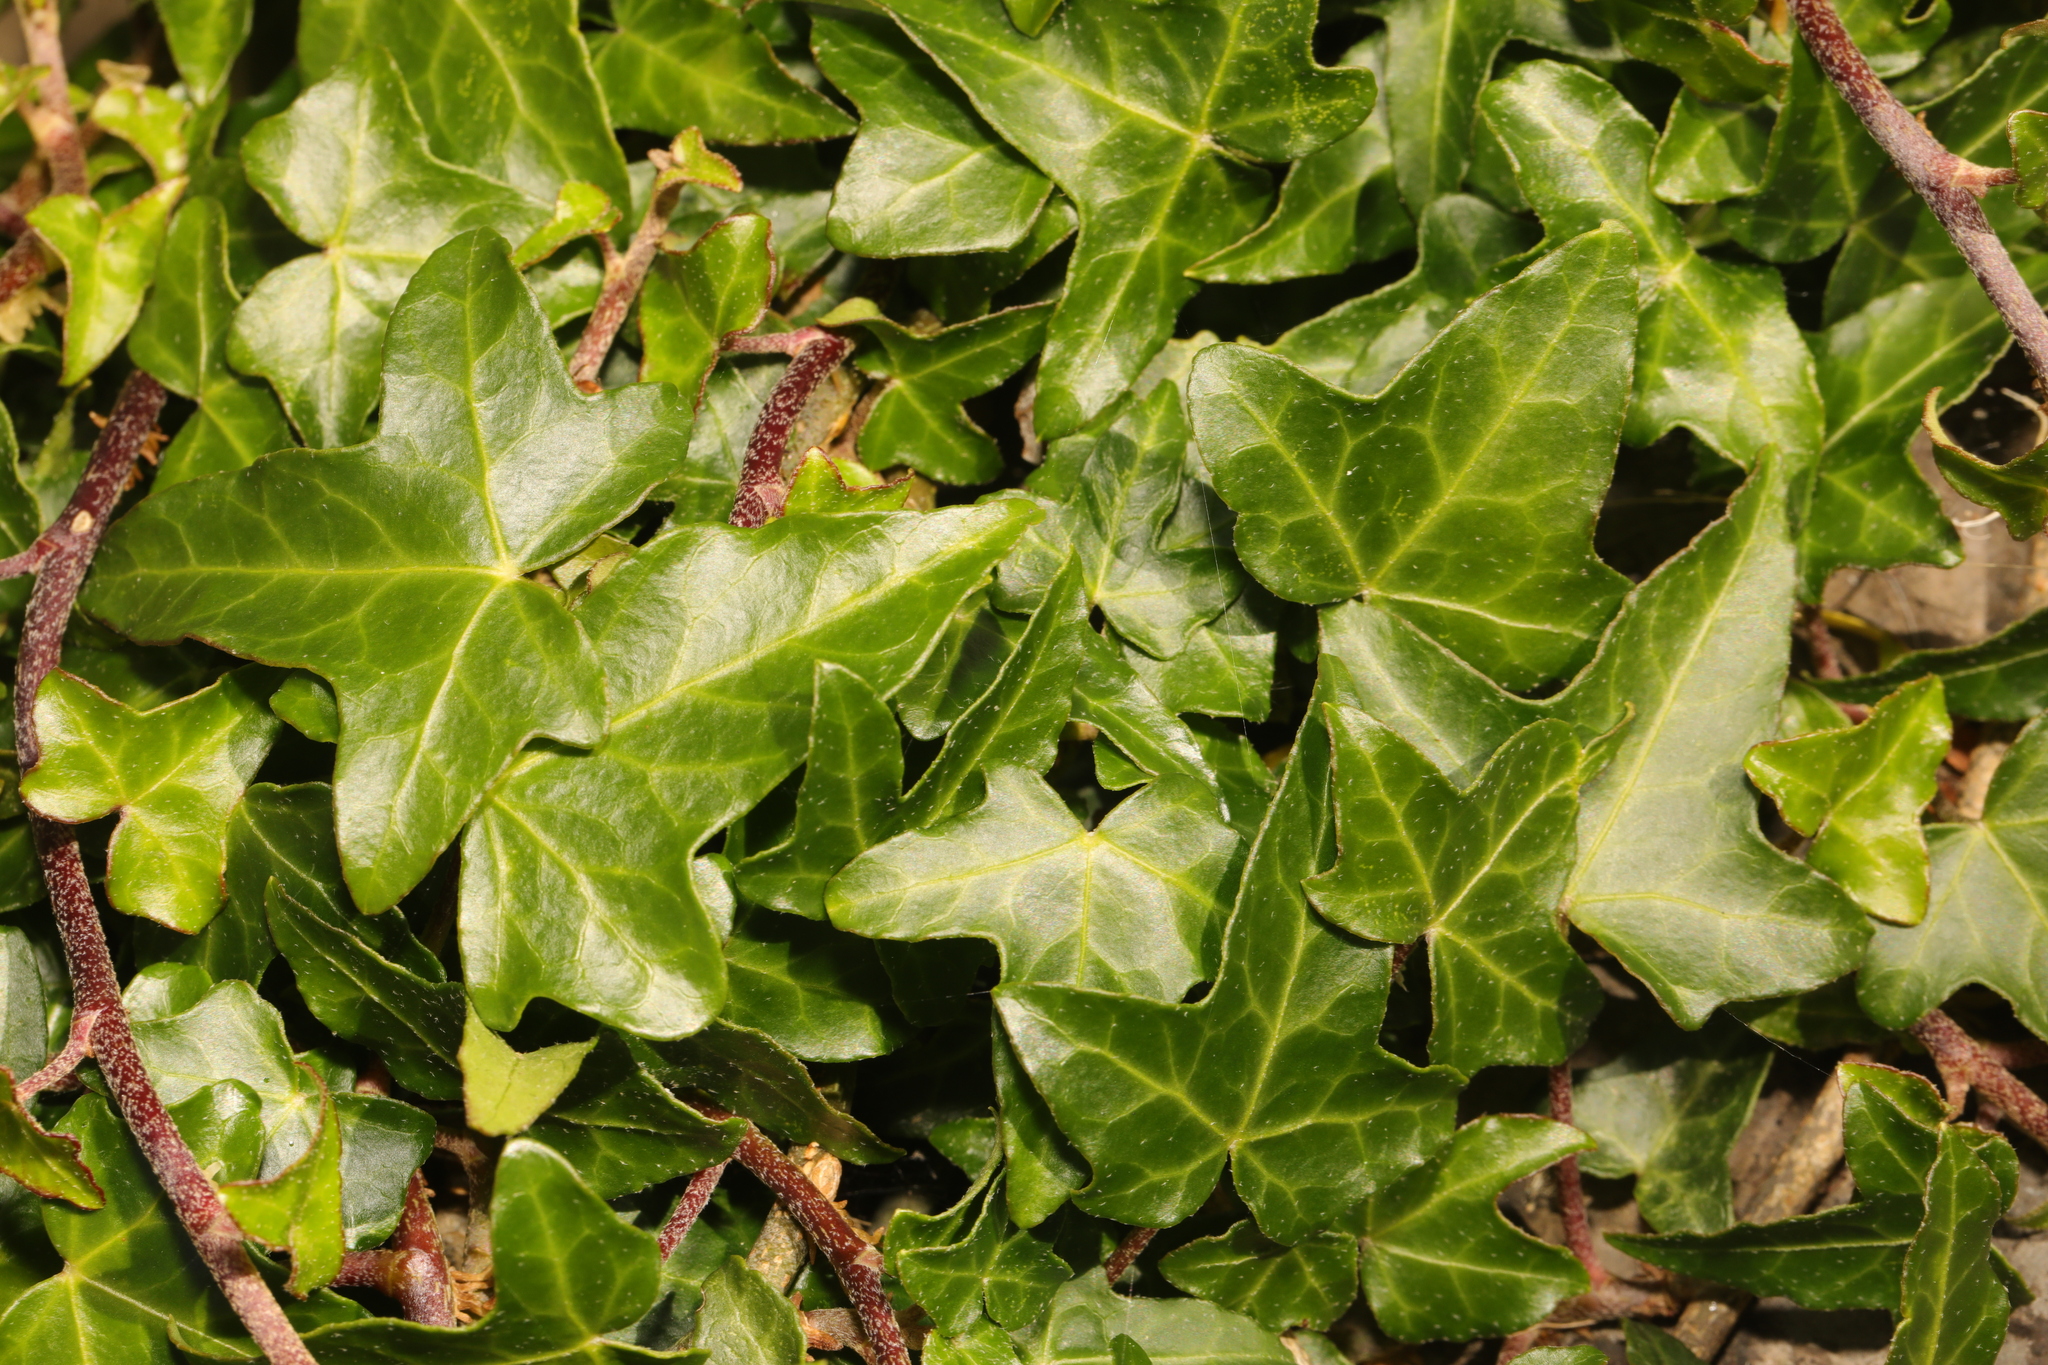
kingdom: Plantae
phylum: Tracheophyta
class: Magnoliopsida
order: Apiales
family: Araliaceae
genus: Hedera
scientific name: Hedera helix
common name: Ivy
